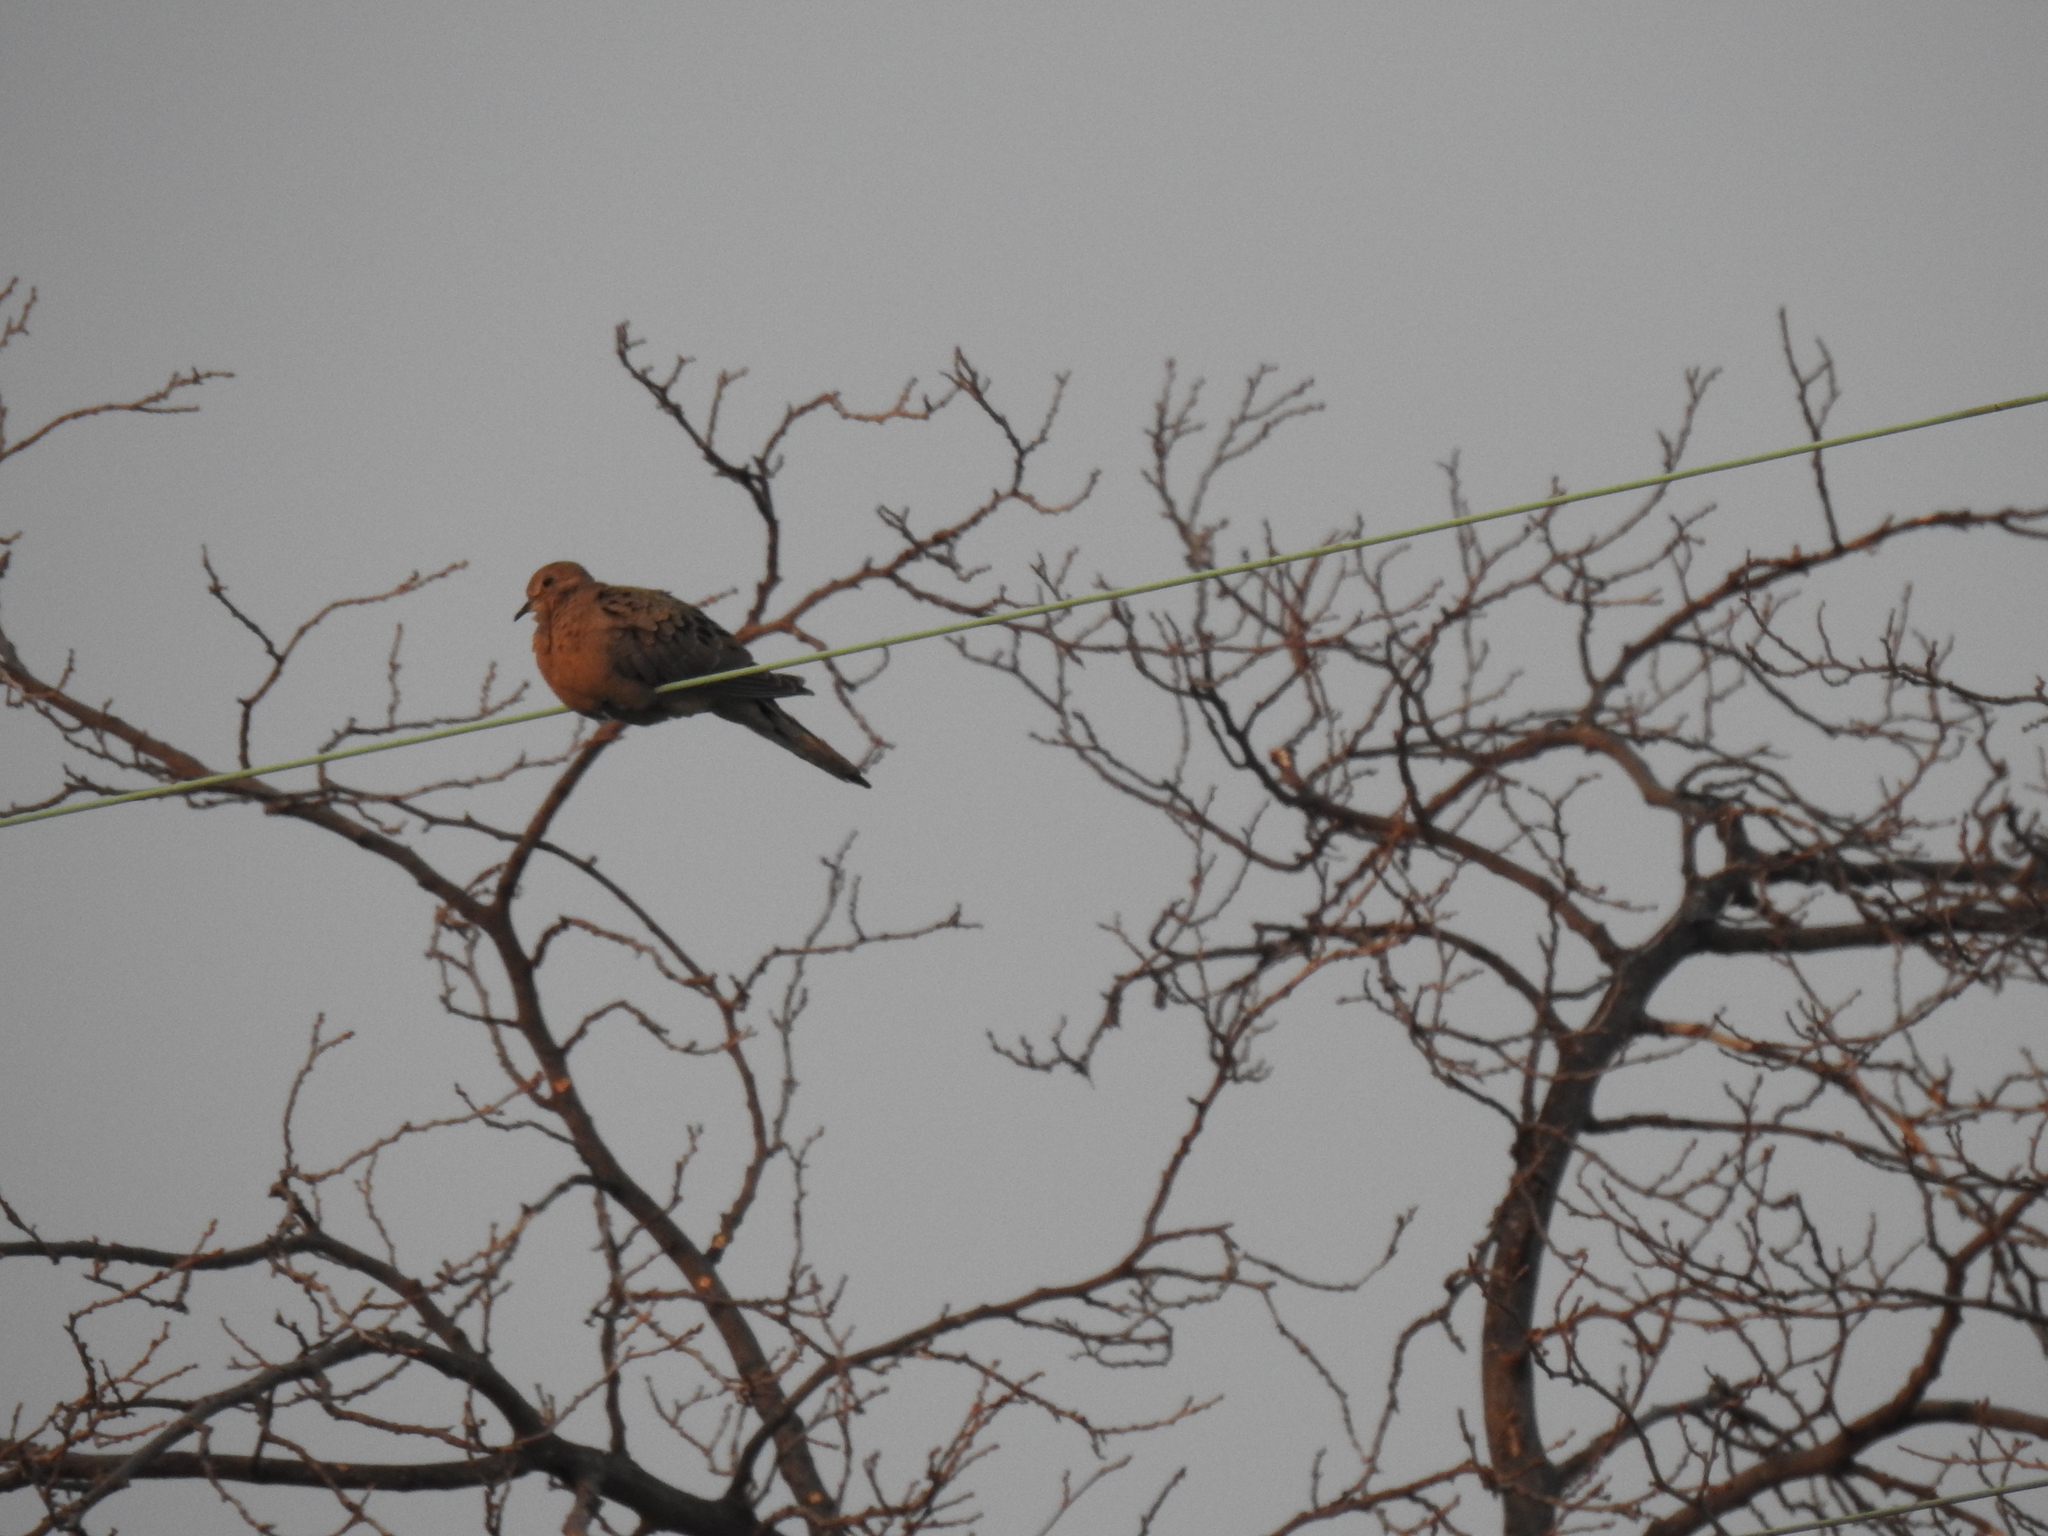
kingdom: Animalia
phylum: Chordata
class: Aves
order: Columbiformes
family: Columbidae
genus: Zenaida
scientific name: Zenaida macroura
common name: Mourning dove
